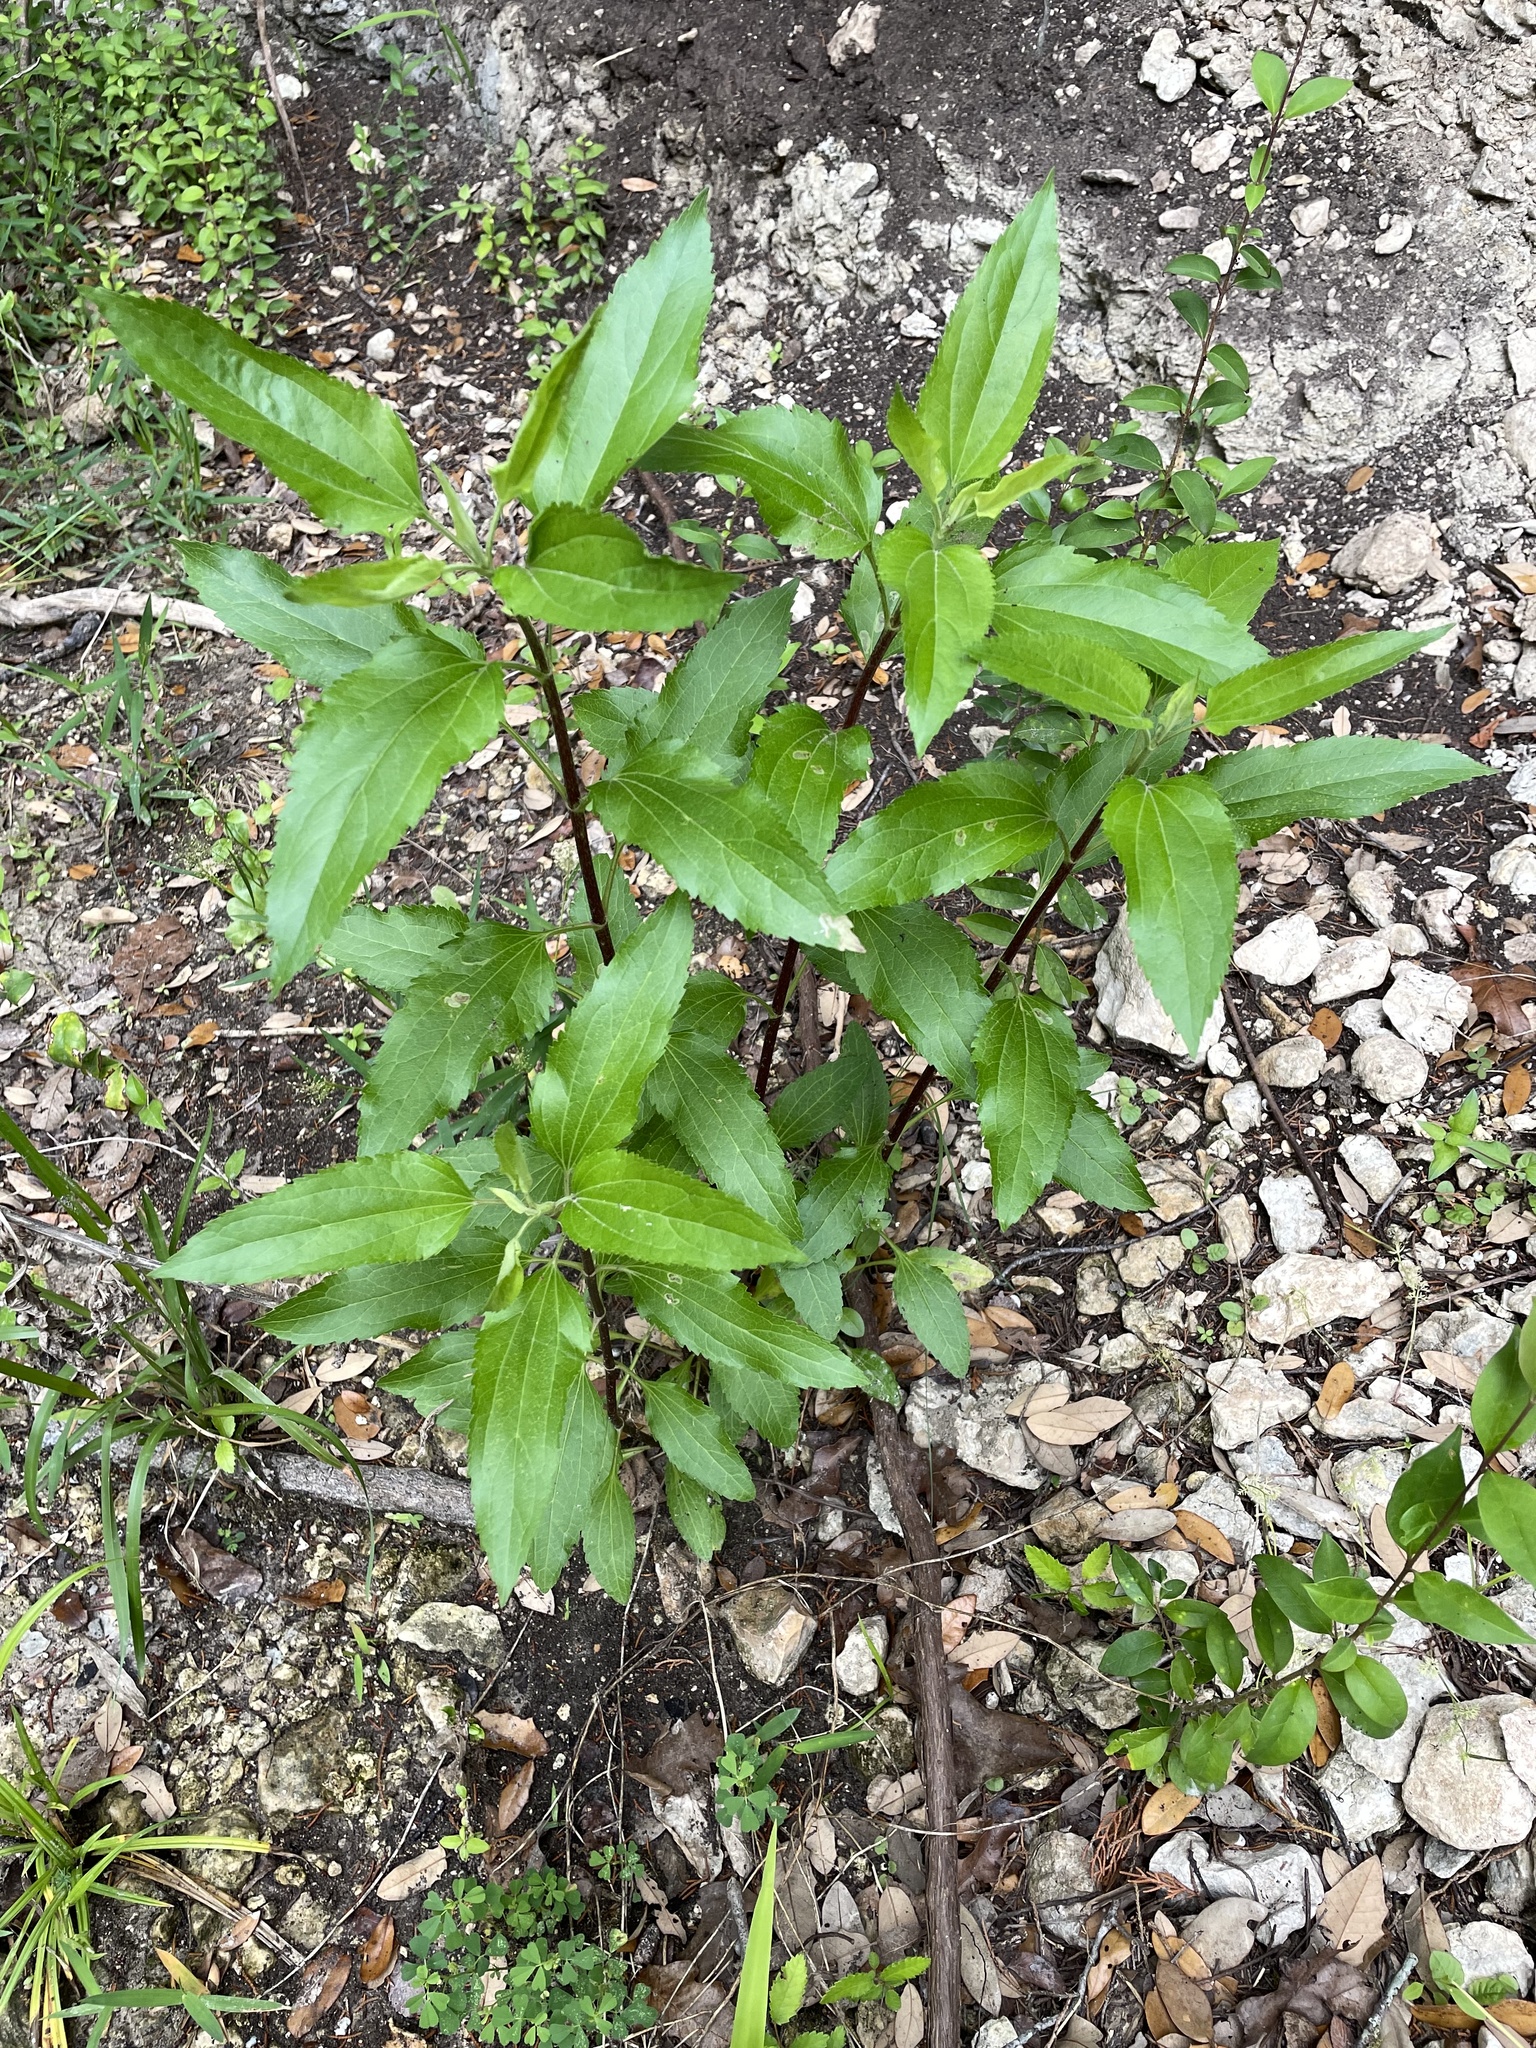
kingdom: Plantae
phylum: Tracheophyta
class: Magnoliopsida
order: Asterales
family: Asteraceae
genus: Eupatorium
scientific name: Eupatorium serotinum
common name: Late boneset
